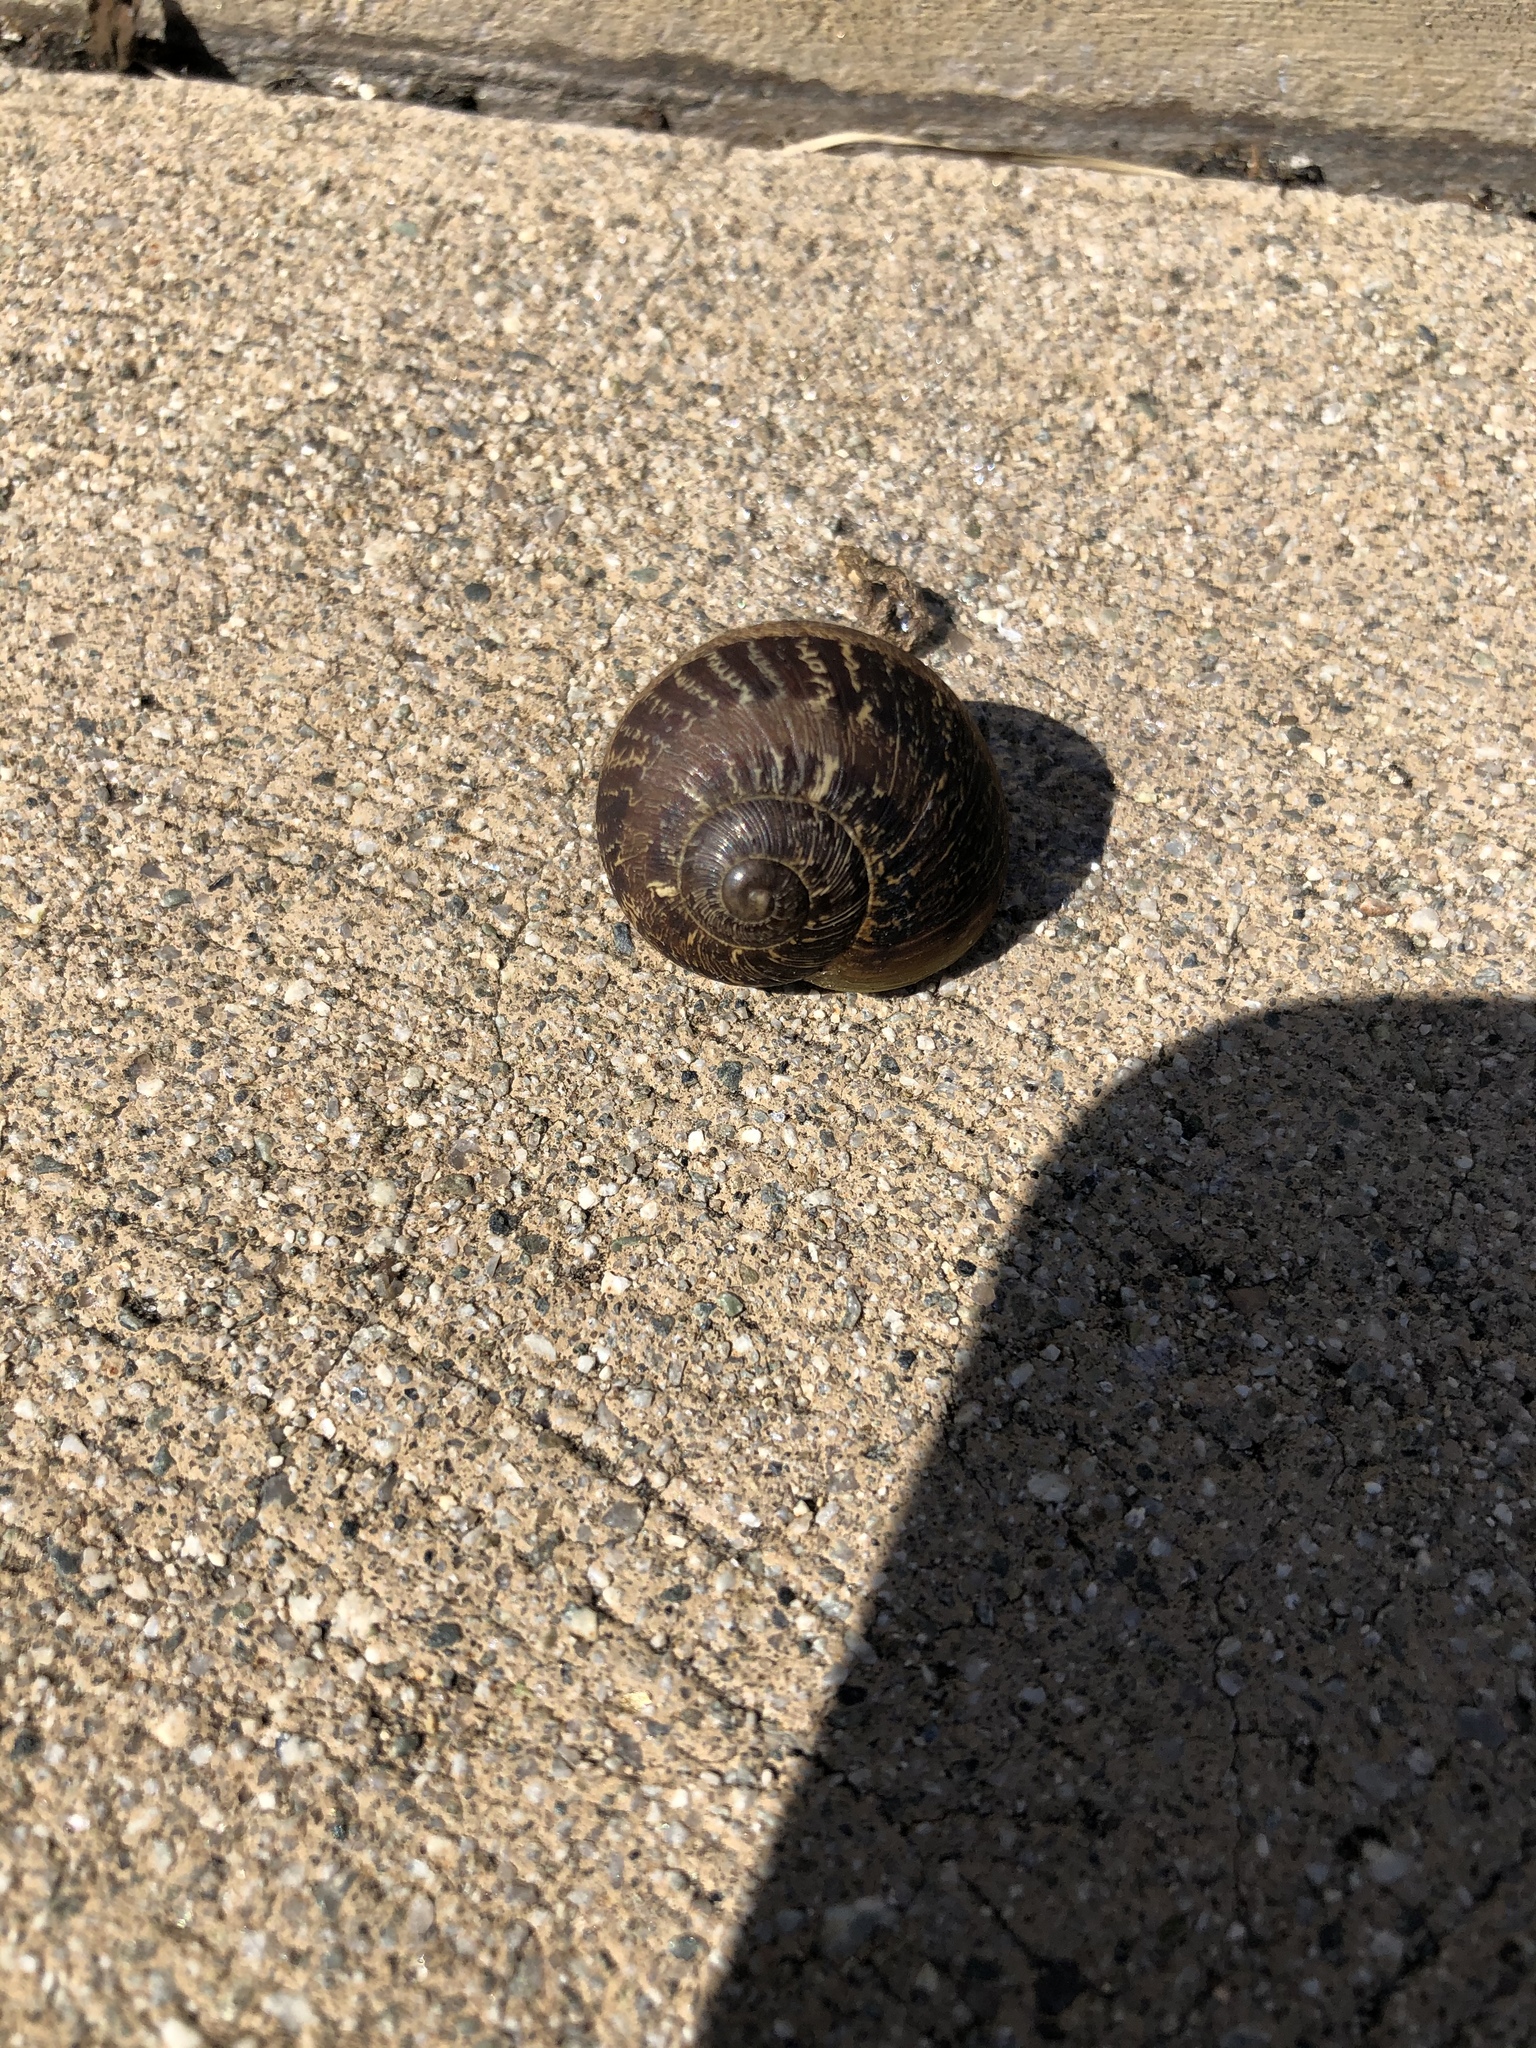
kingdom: Animalia
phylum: Mollusca
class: Gastropoda
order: Stylommatophora
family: Helicidae
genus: Cornu
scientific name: Cornu aspersum
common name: Brown garden snail
